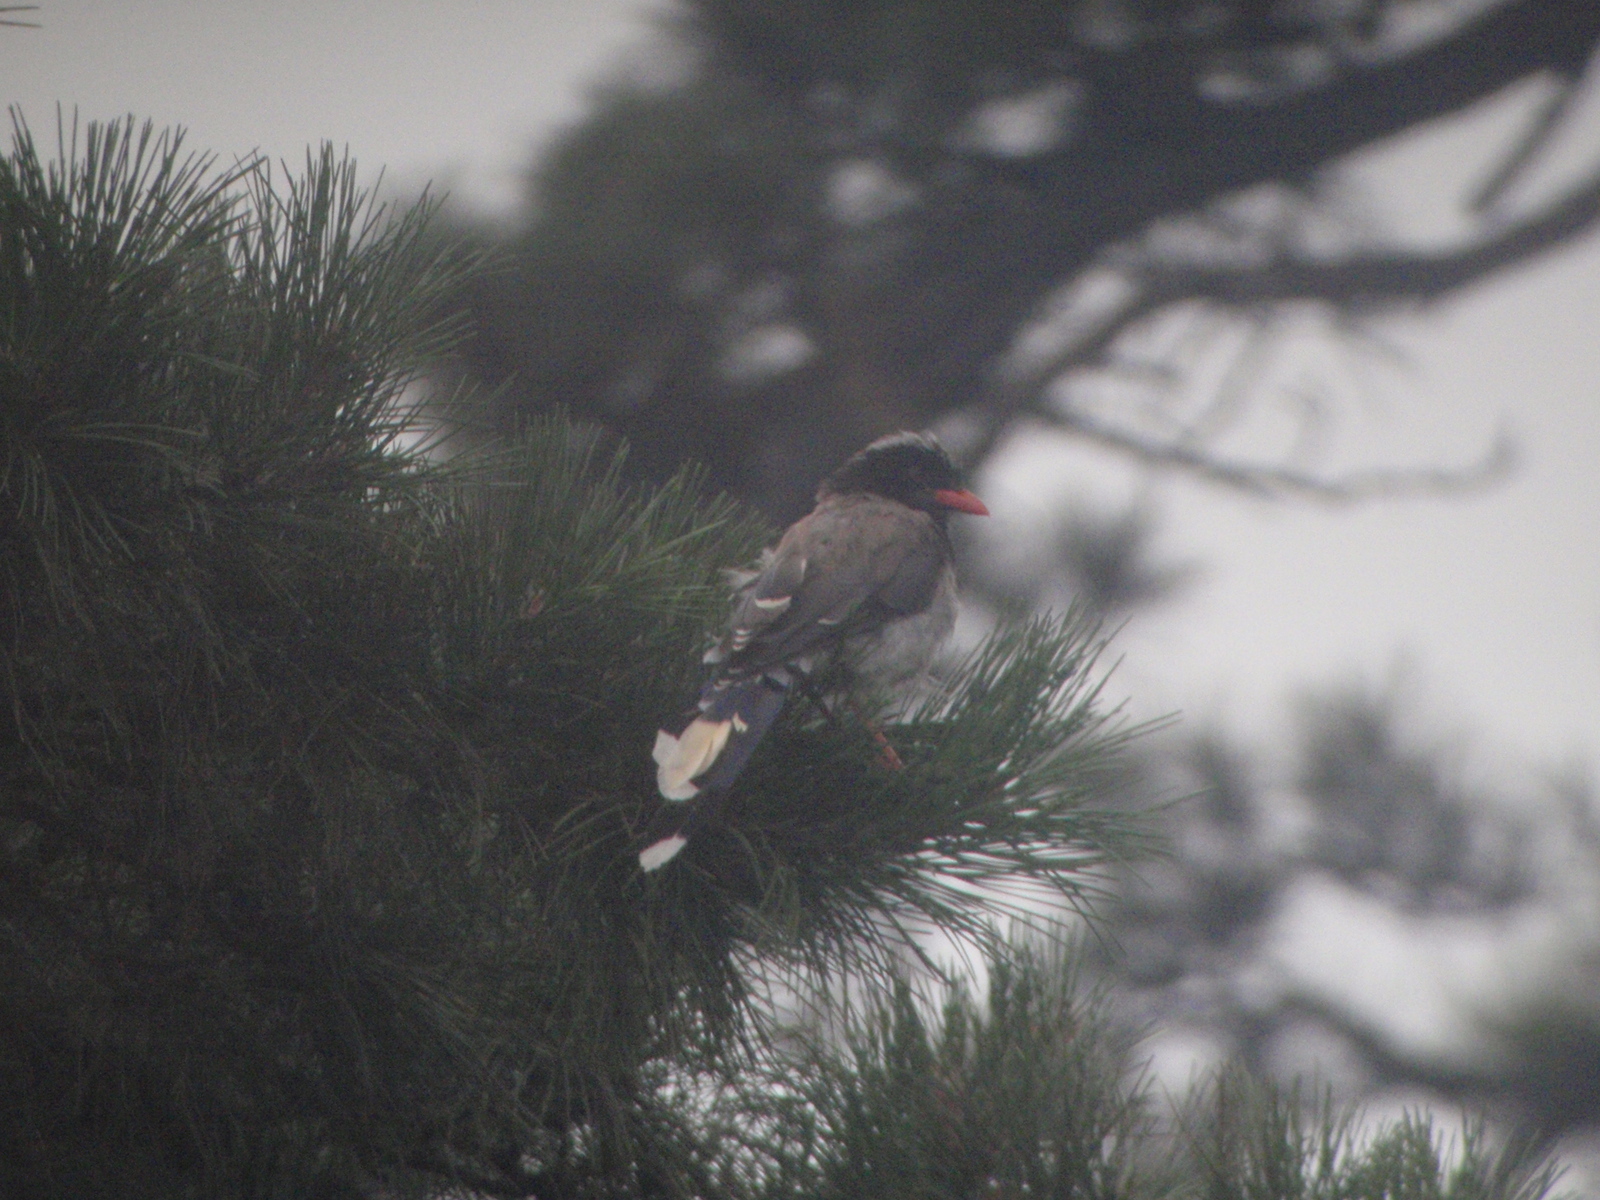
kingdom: Animalia
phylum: Chordata
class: Aves
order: Passeriformes
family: Corvidae
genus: Urocissa
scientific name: Urocissa erythroryncha
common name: Red-billed blue magpie
